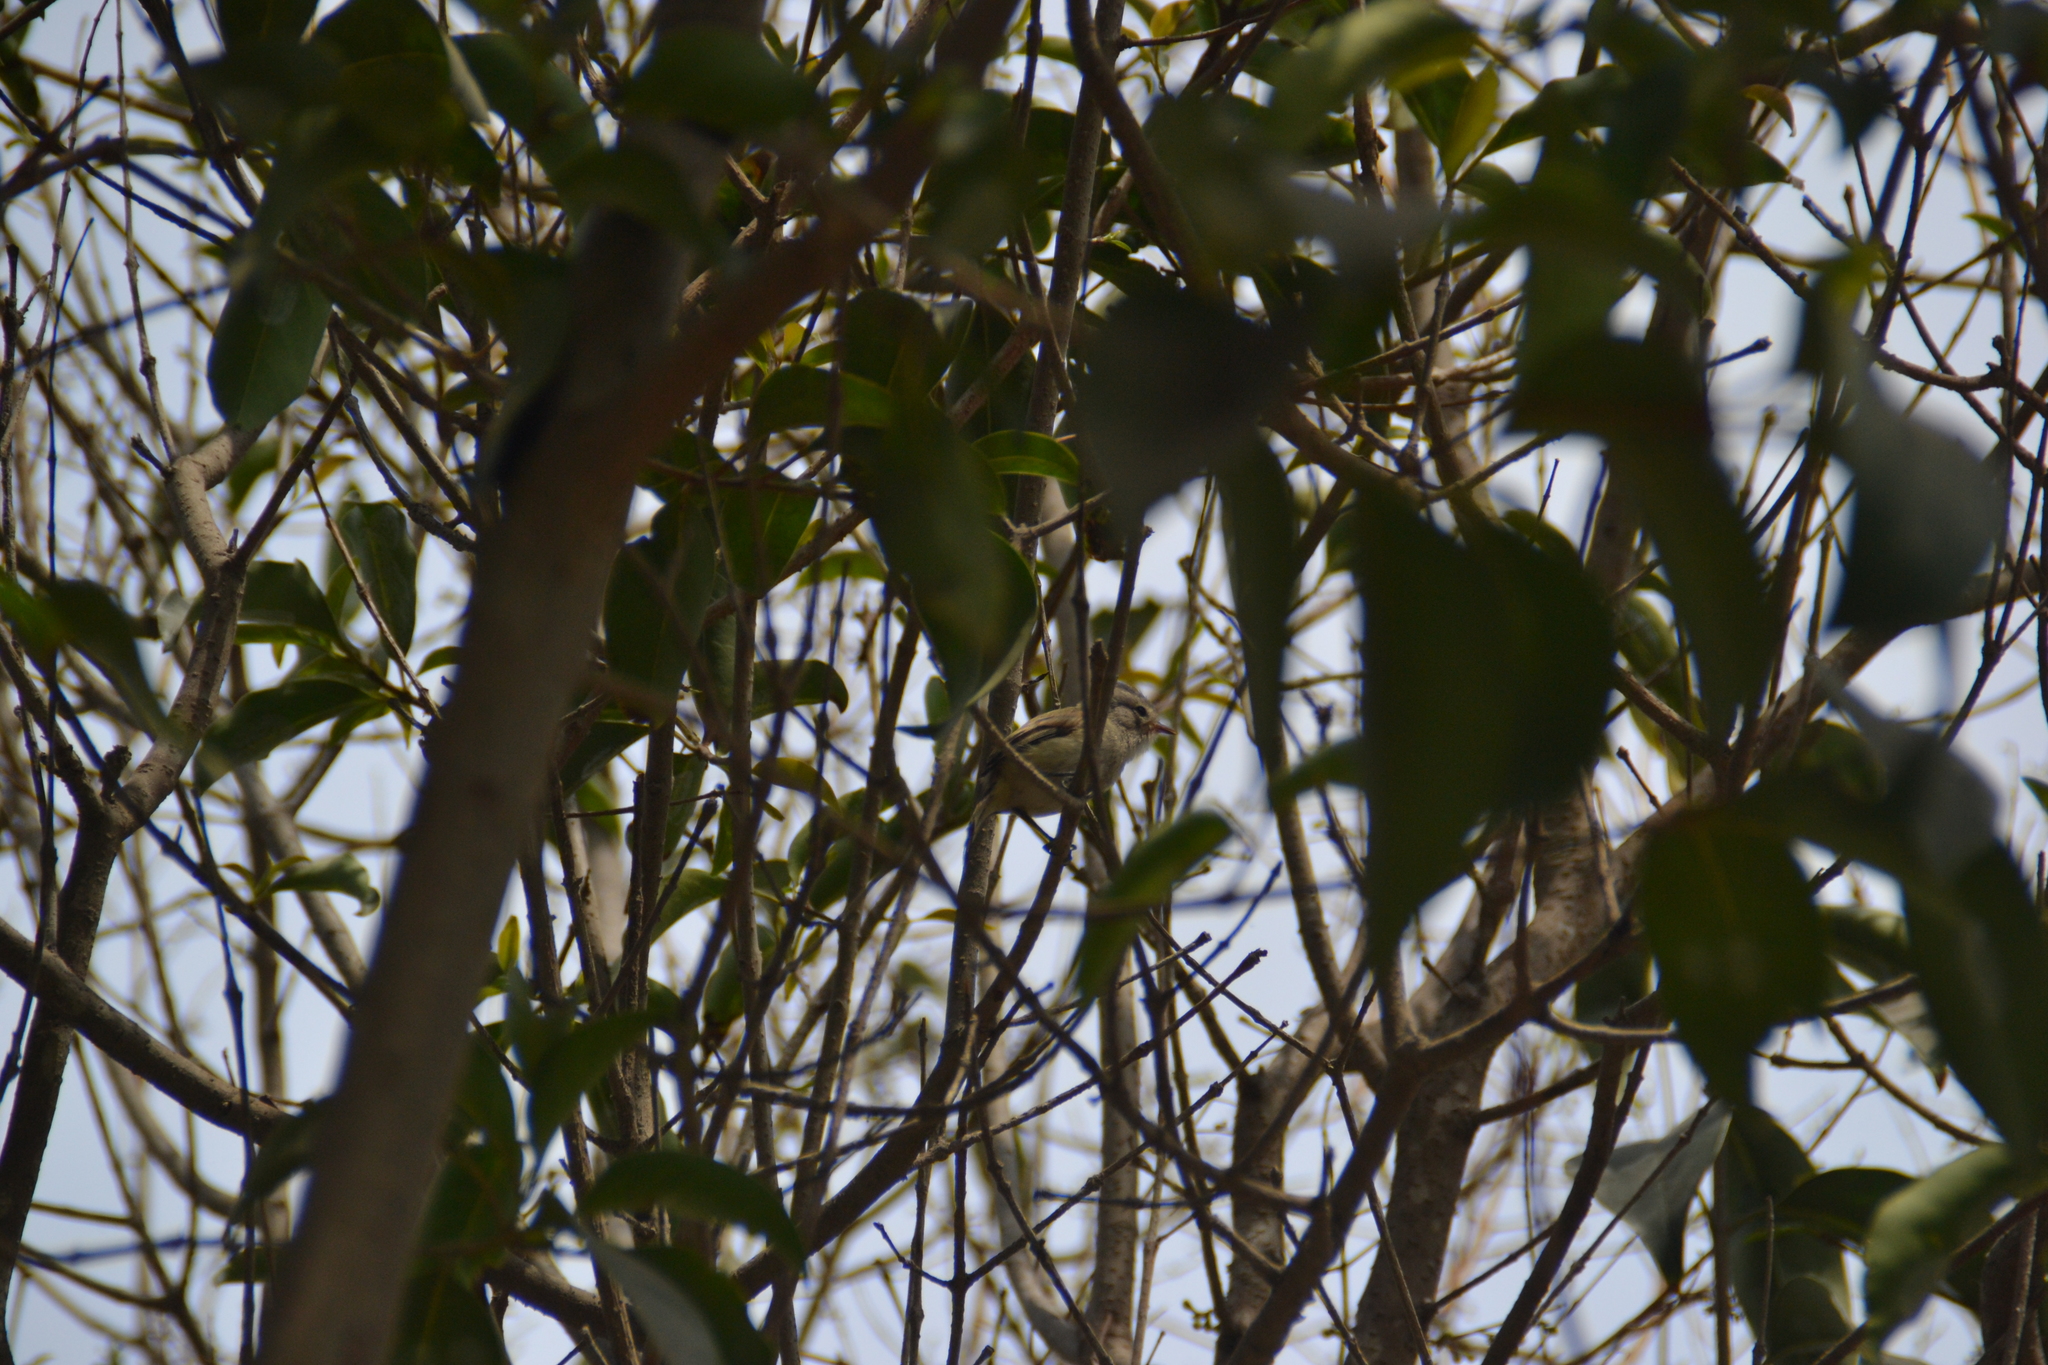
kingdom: Animalia
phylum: Chordata
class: Aves
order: Passeriformes
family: Tyrannidae
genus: Camptostoma
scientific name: Camptostoma obsoletum
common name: Southern beardless-tyrannulet
